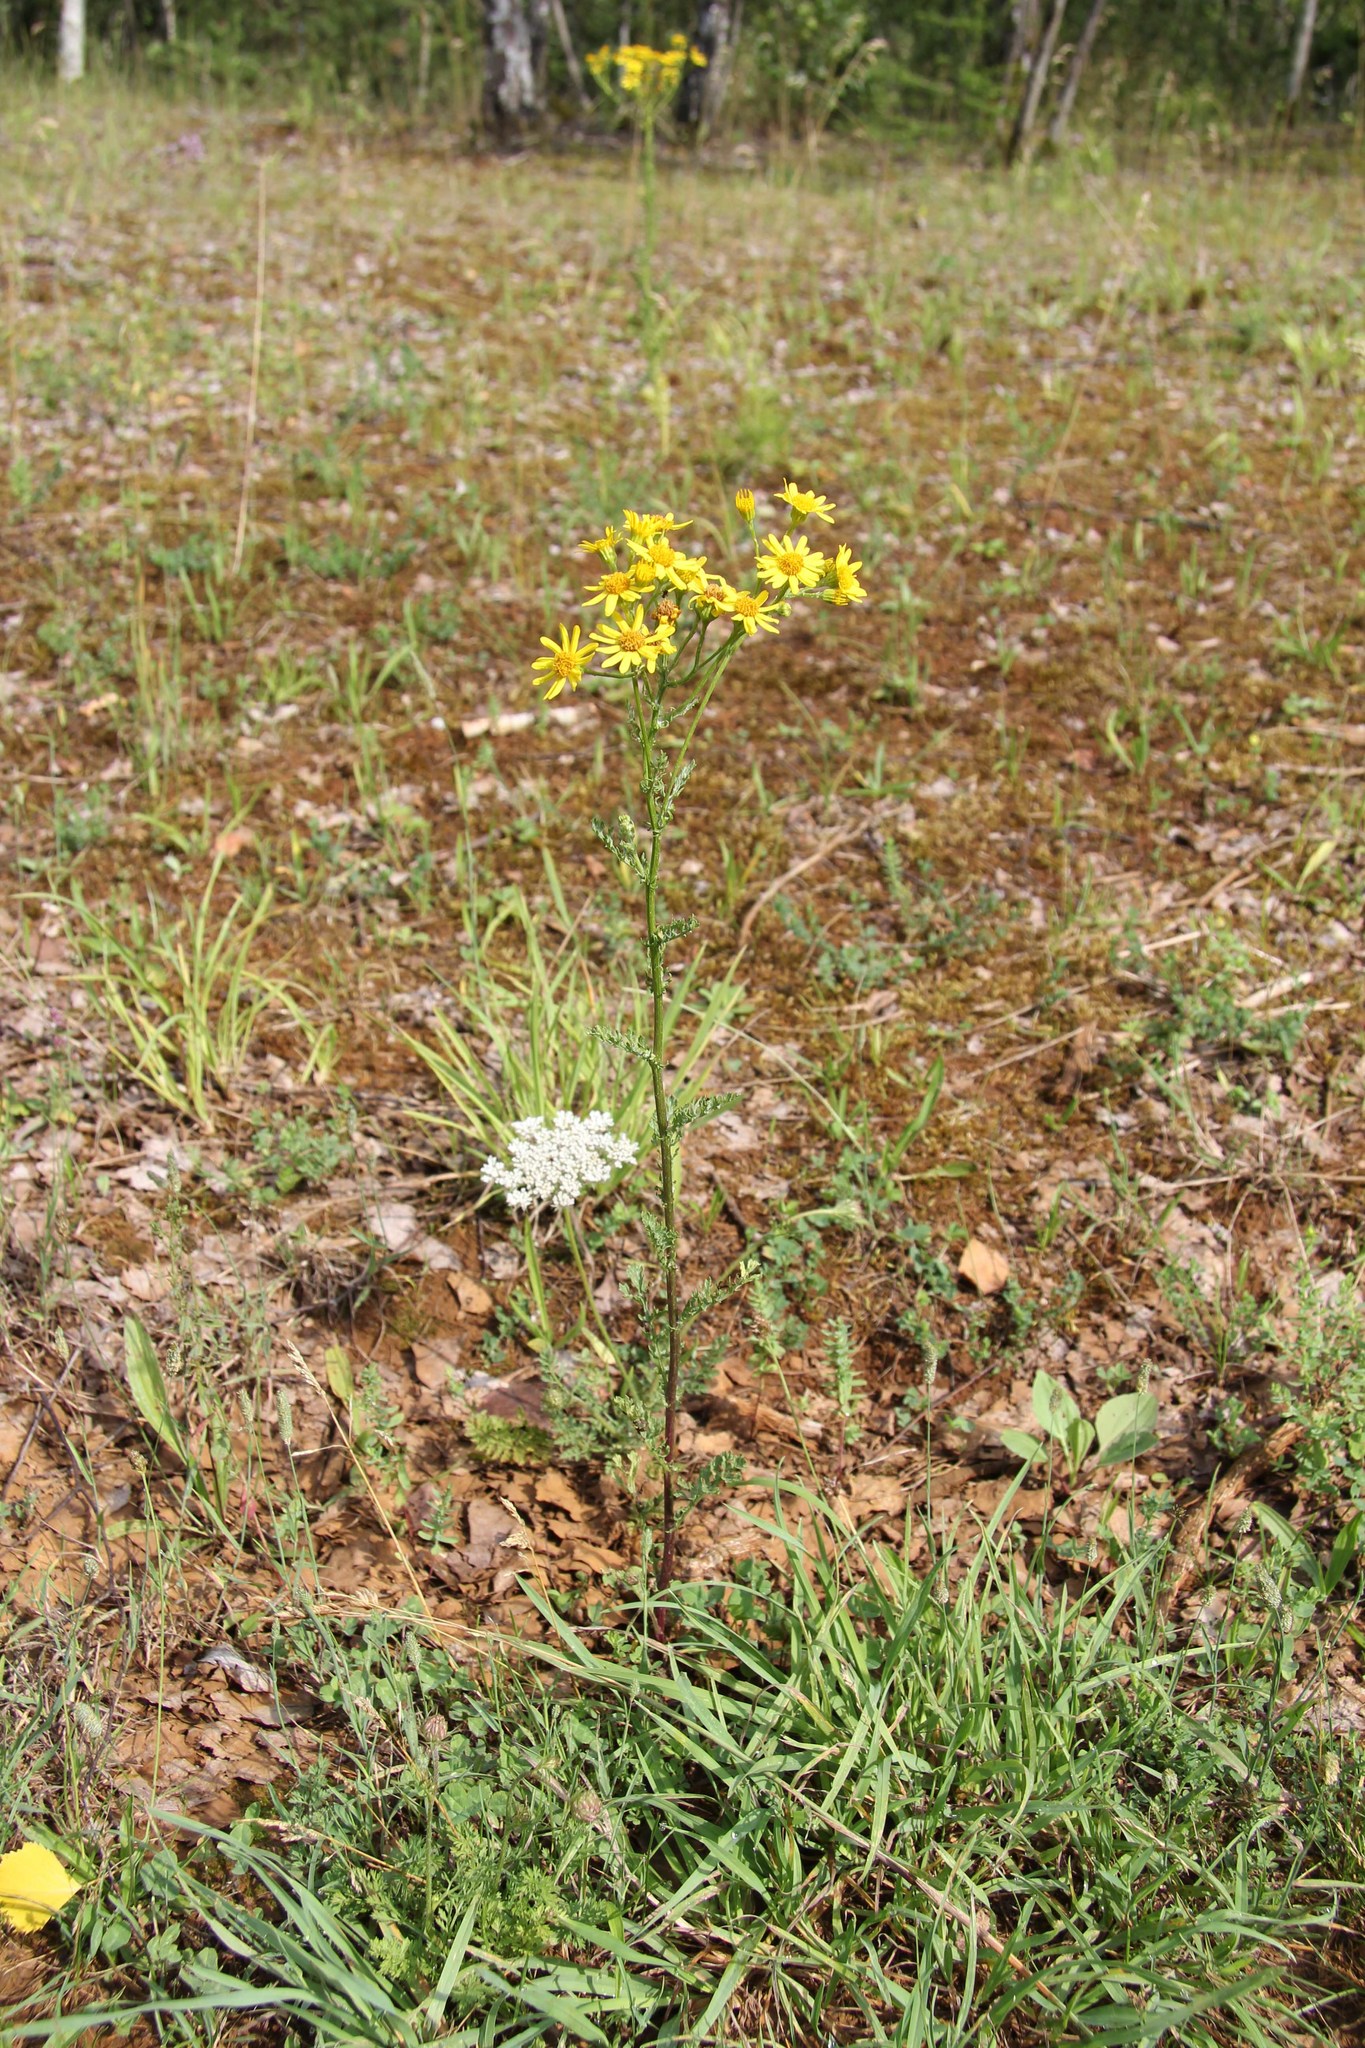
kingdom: Plantae
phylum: Tracheophyta
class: Magnoliopsida
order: Asterales
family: Asteraceae
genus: Jacobaea
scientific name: Jacobaea vulgaris
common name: Stinking willie
